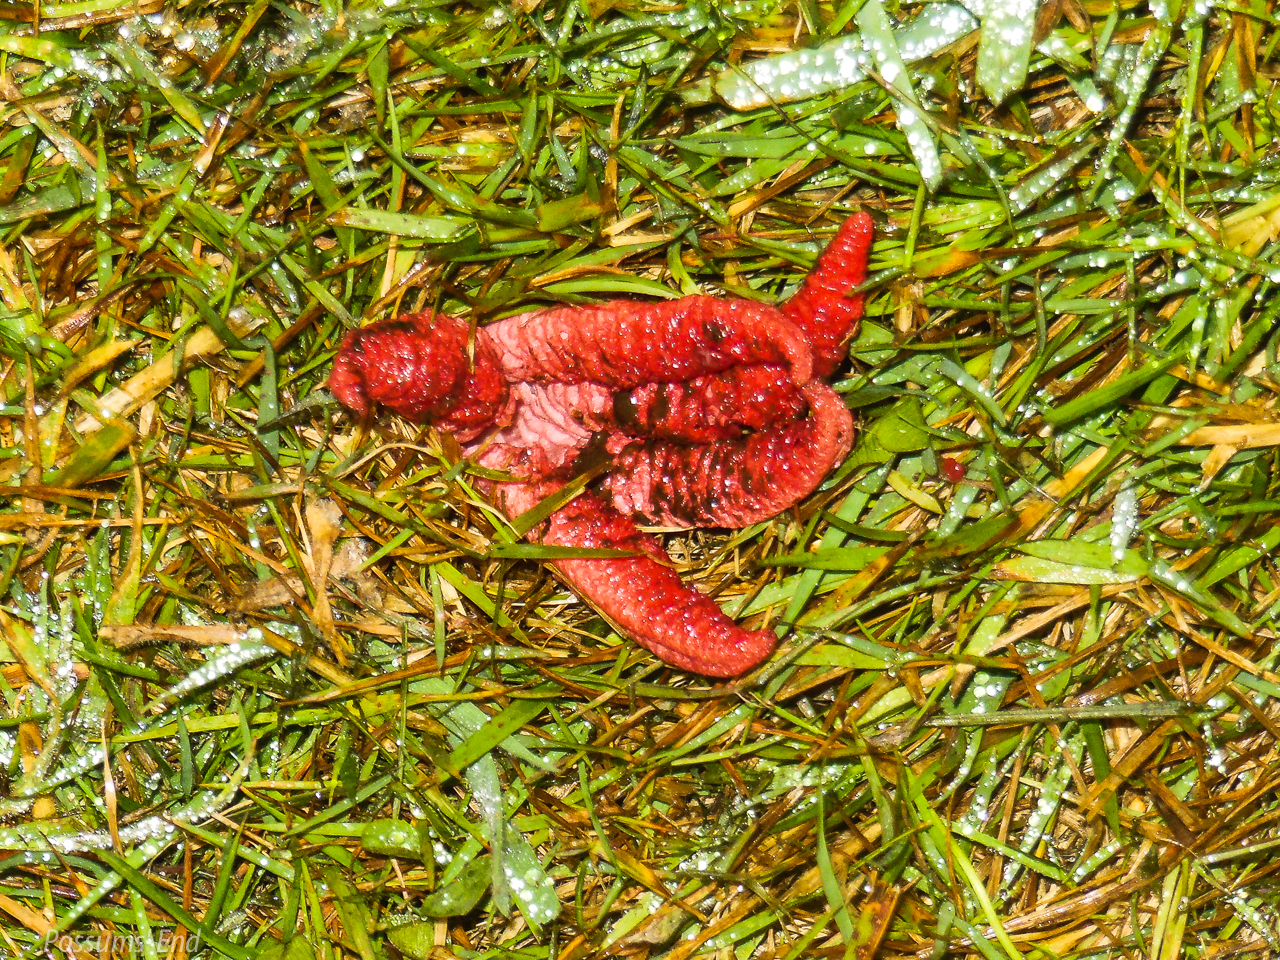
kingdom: Fungi
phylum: Basidiomycota
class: Agaricomycetes
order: Phallales
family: Phallaceae
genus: Clathrus
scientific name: Clathrus archeri
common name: Devil's fingers
